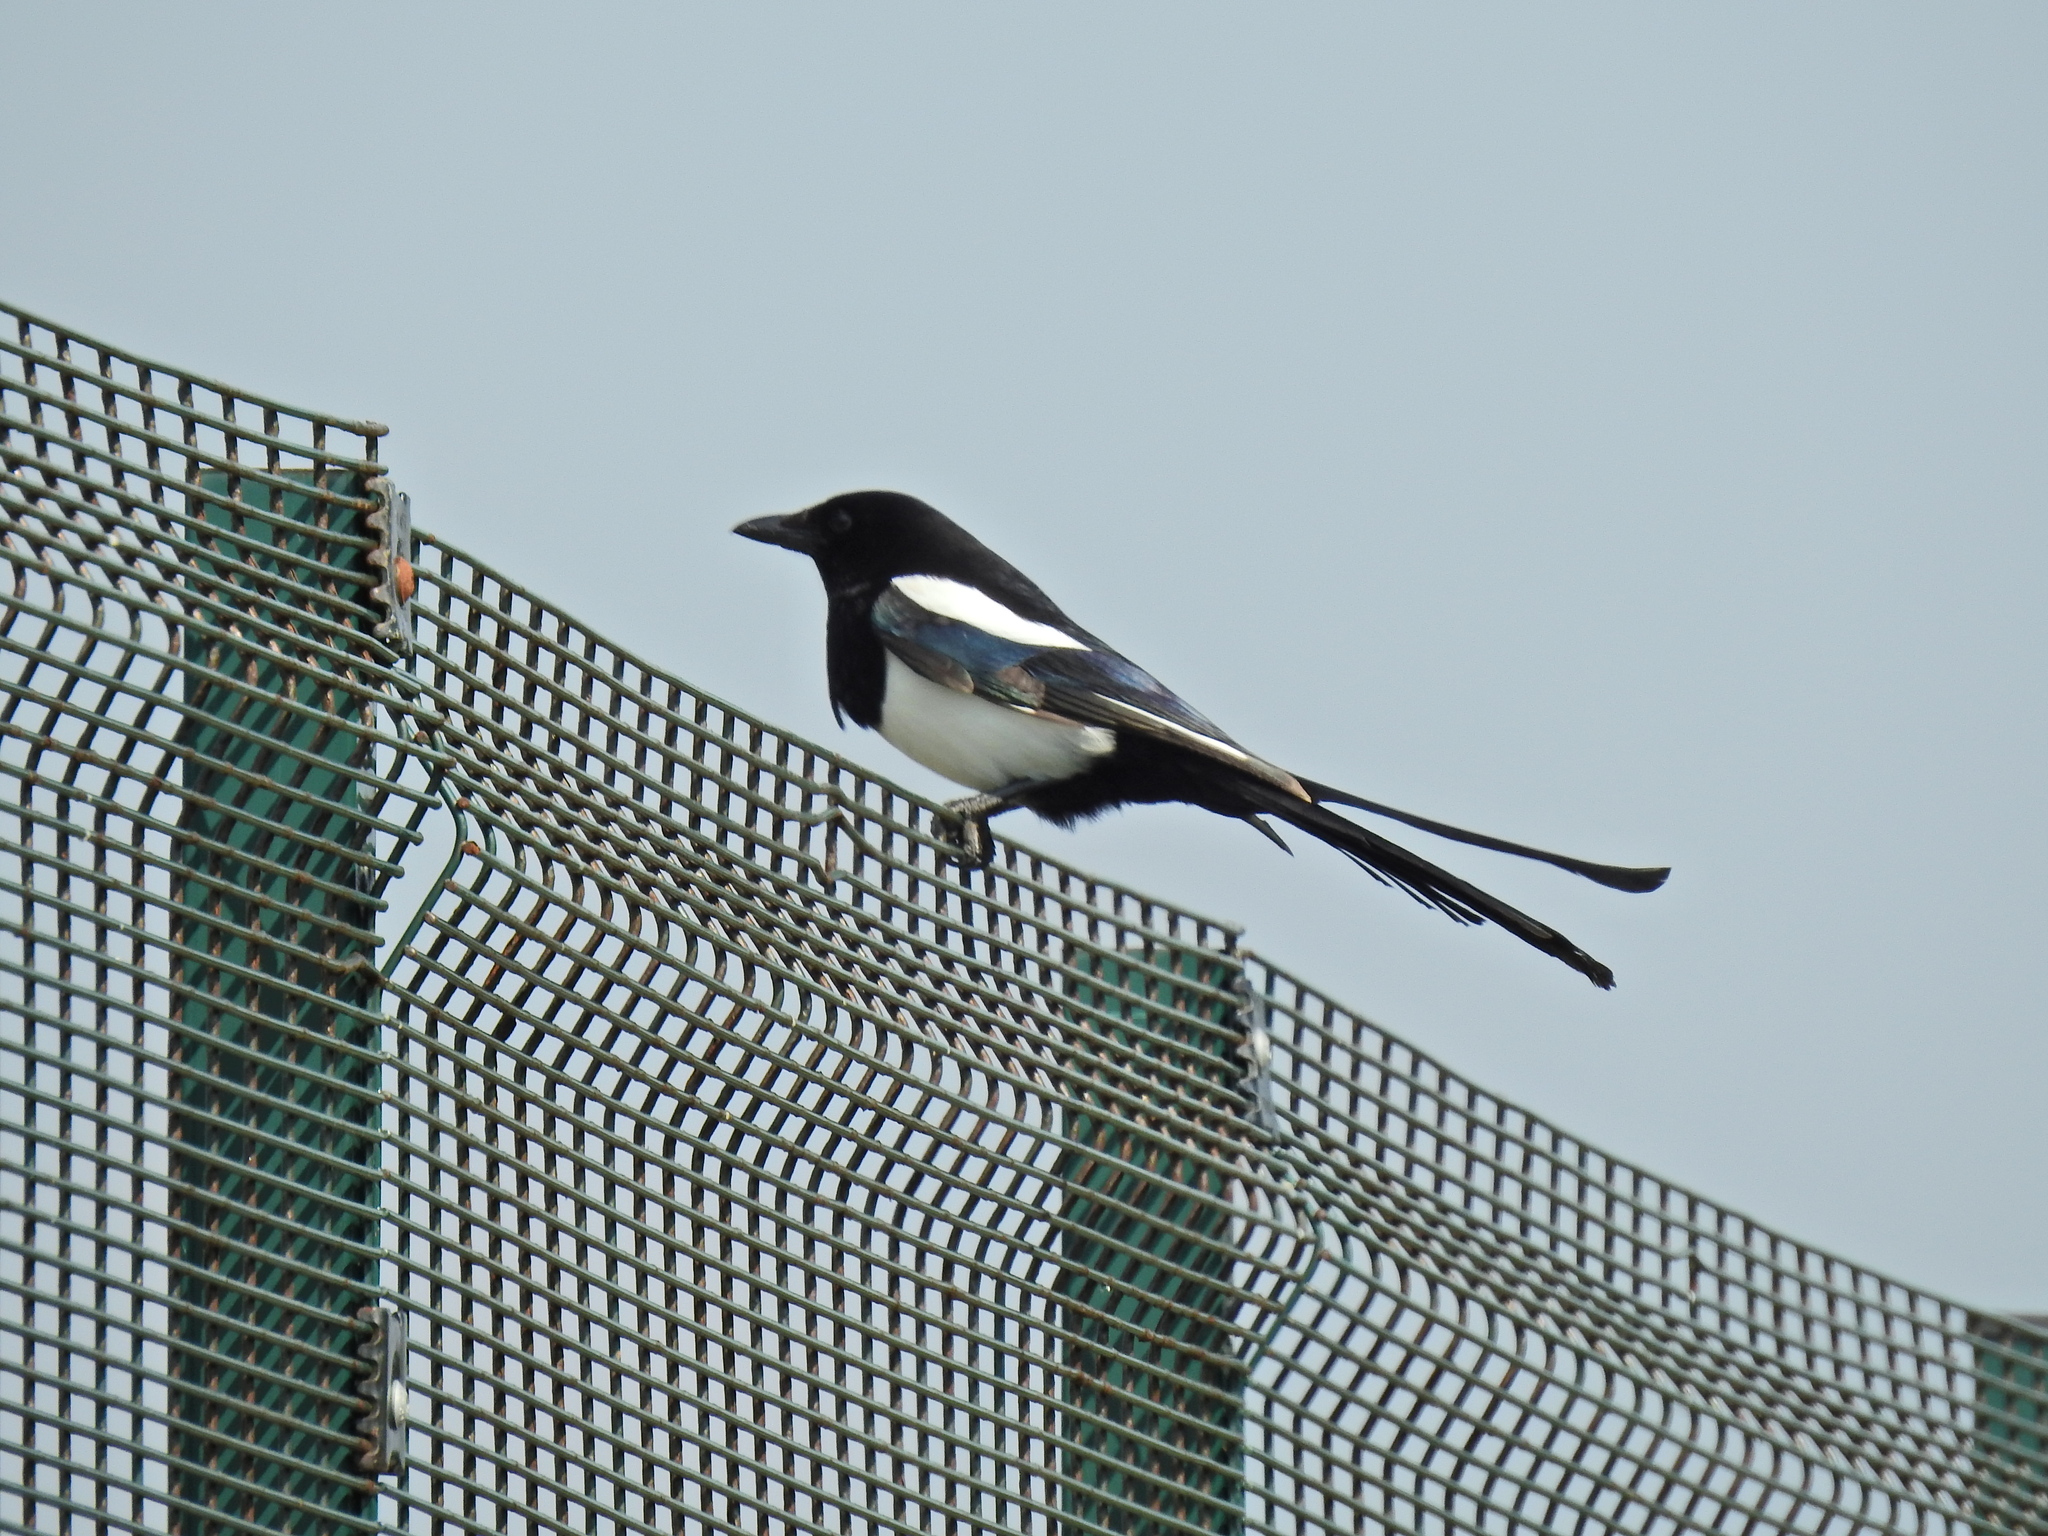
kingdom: Animalia
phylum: Chordata
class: Aves
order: Passeriformes
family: Corvidae
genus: Pica
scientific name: Pica pica
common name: Eurasian magpie
